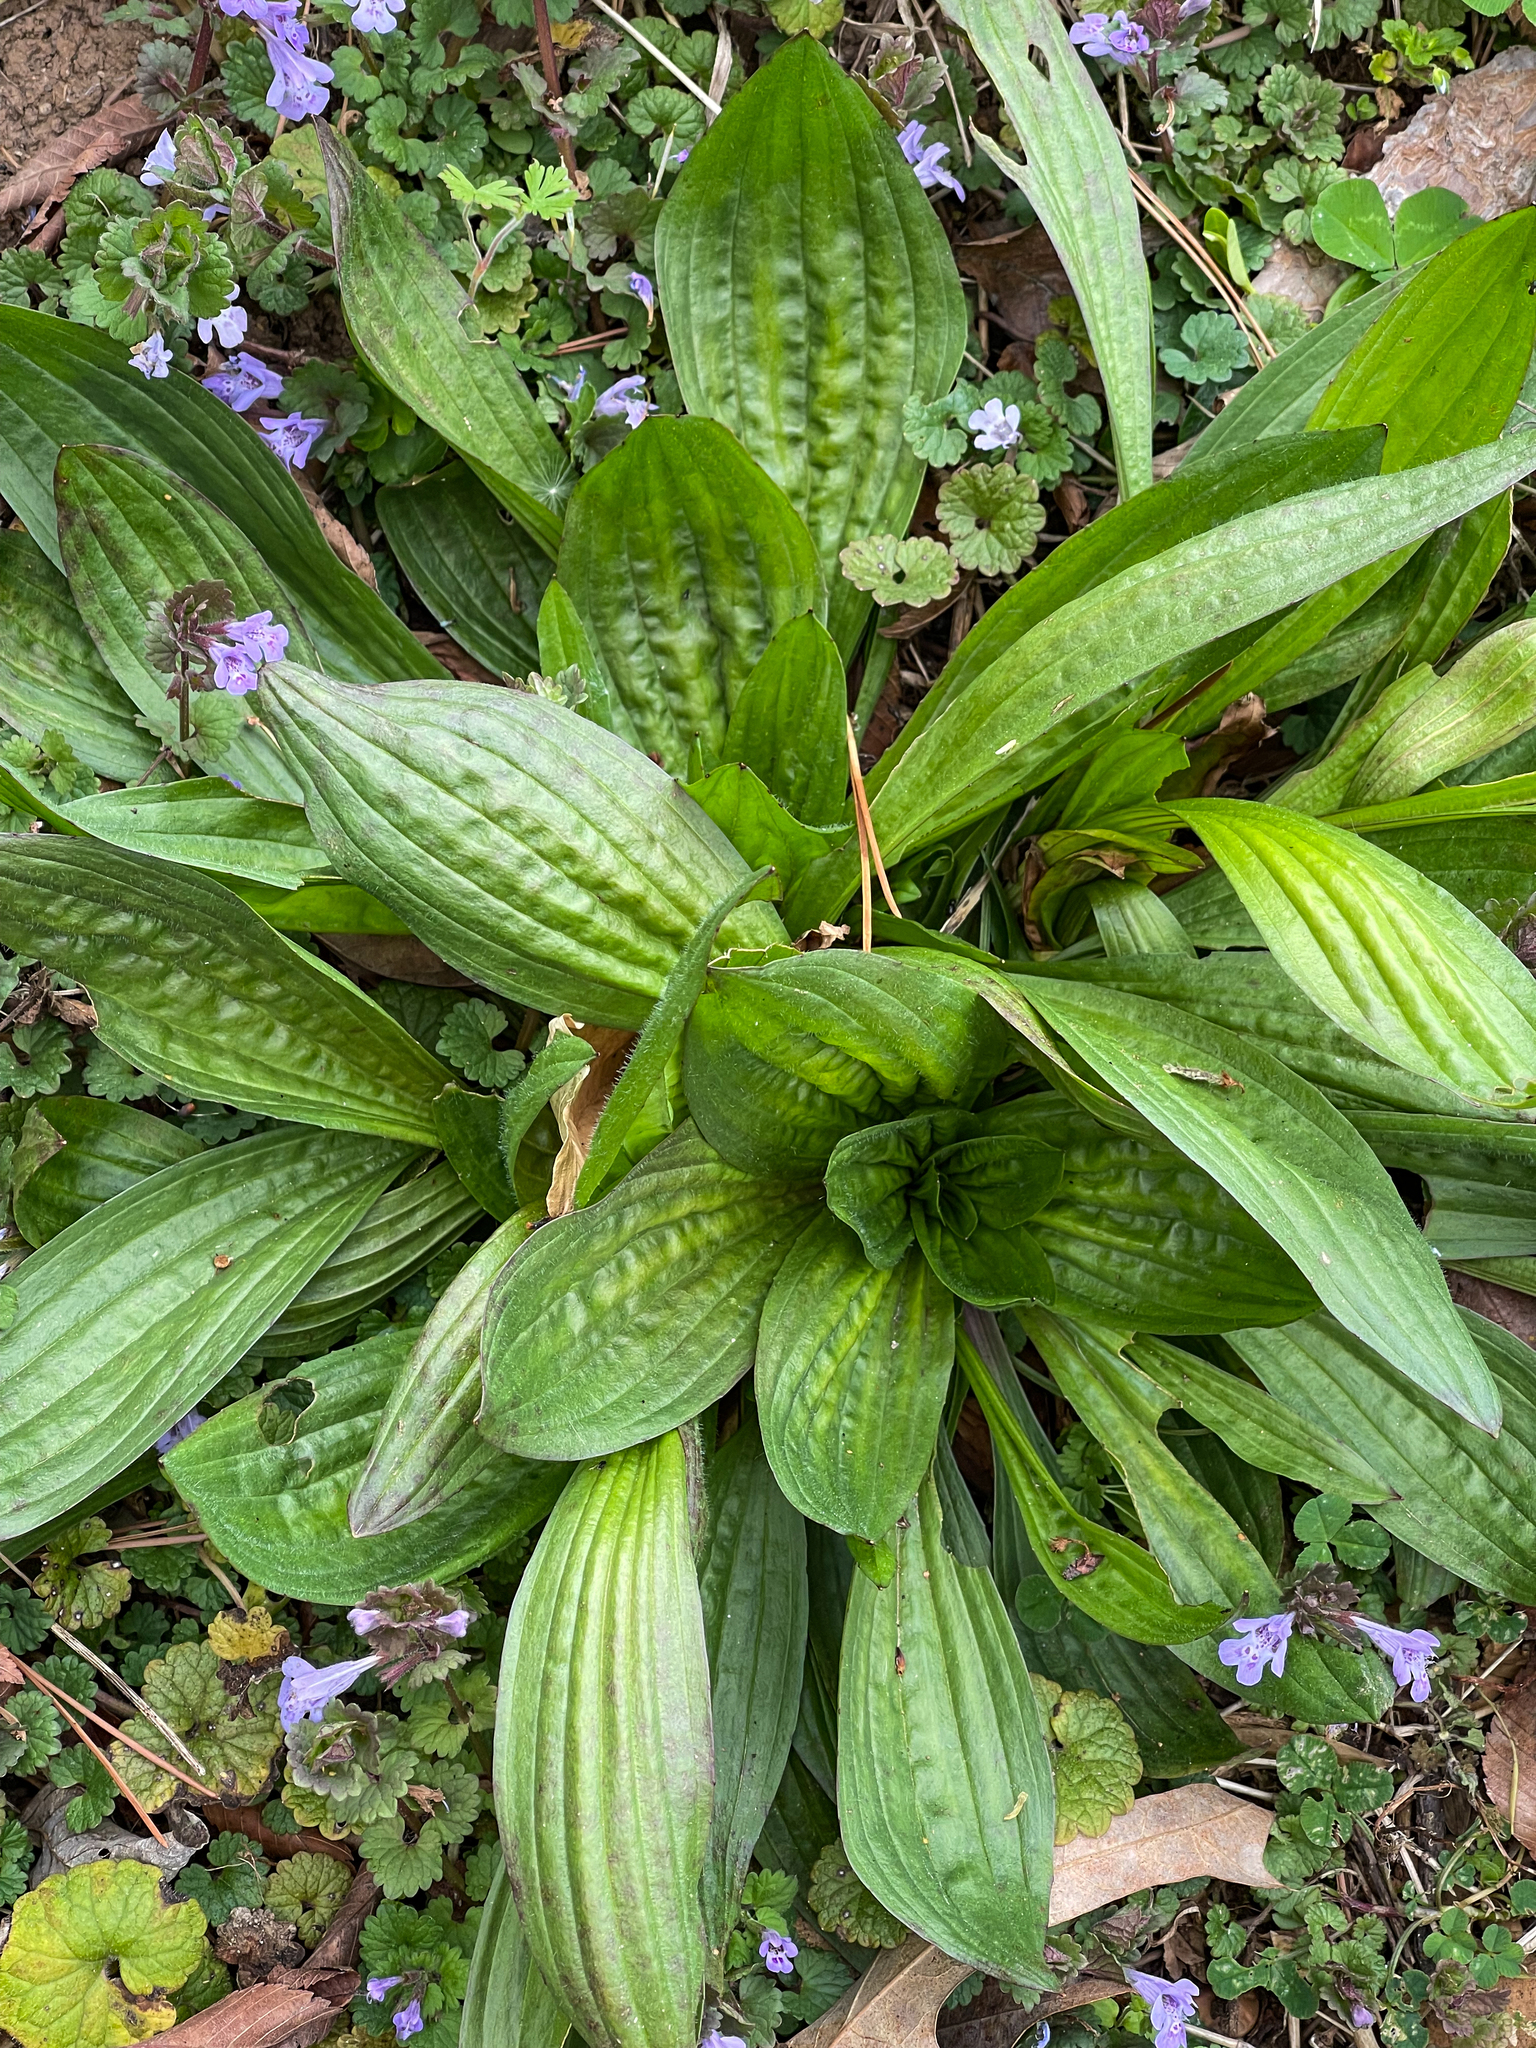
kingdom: Plantae
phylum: Tracheophyta
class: Magnoliopsida
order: Lamiales
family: Plantaginaceae
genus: Plantago
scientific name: Plantago lanceolata
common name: Ribwort plantain
